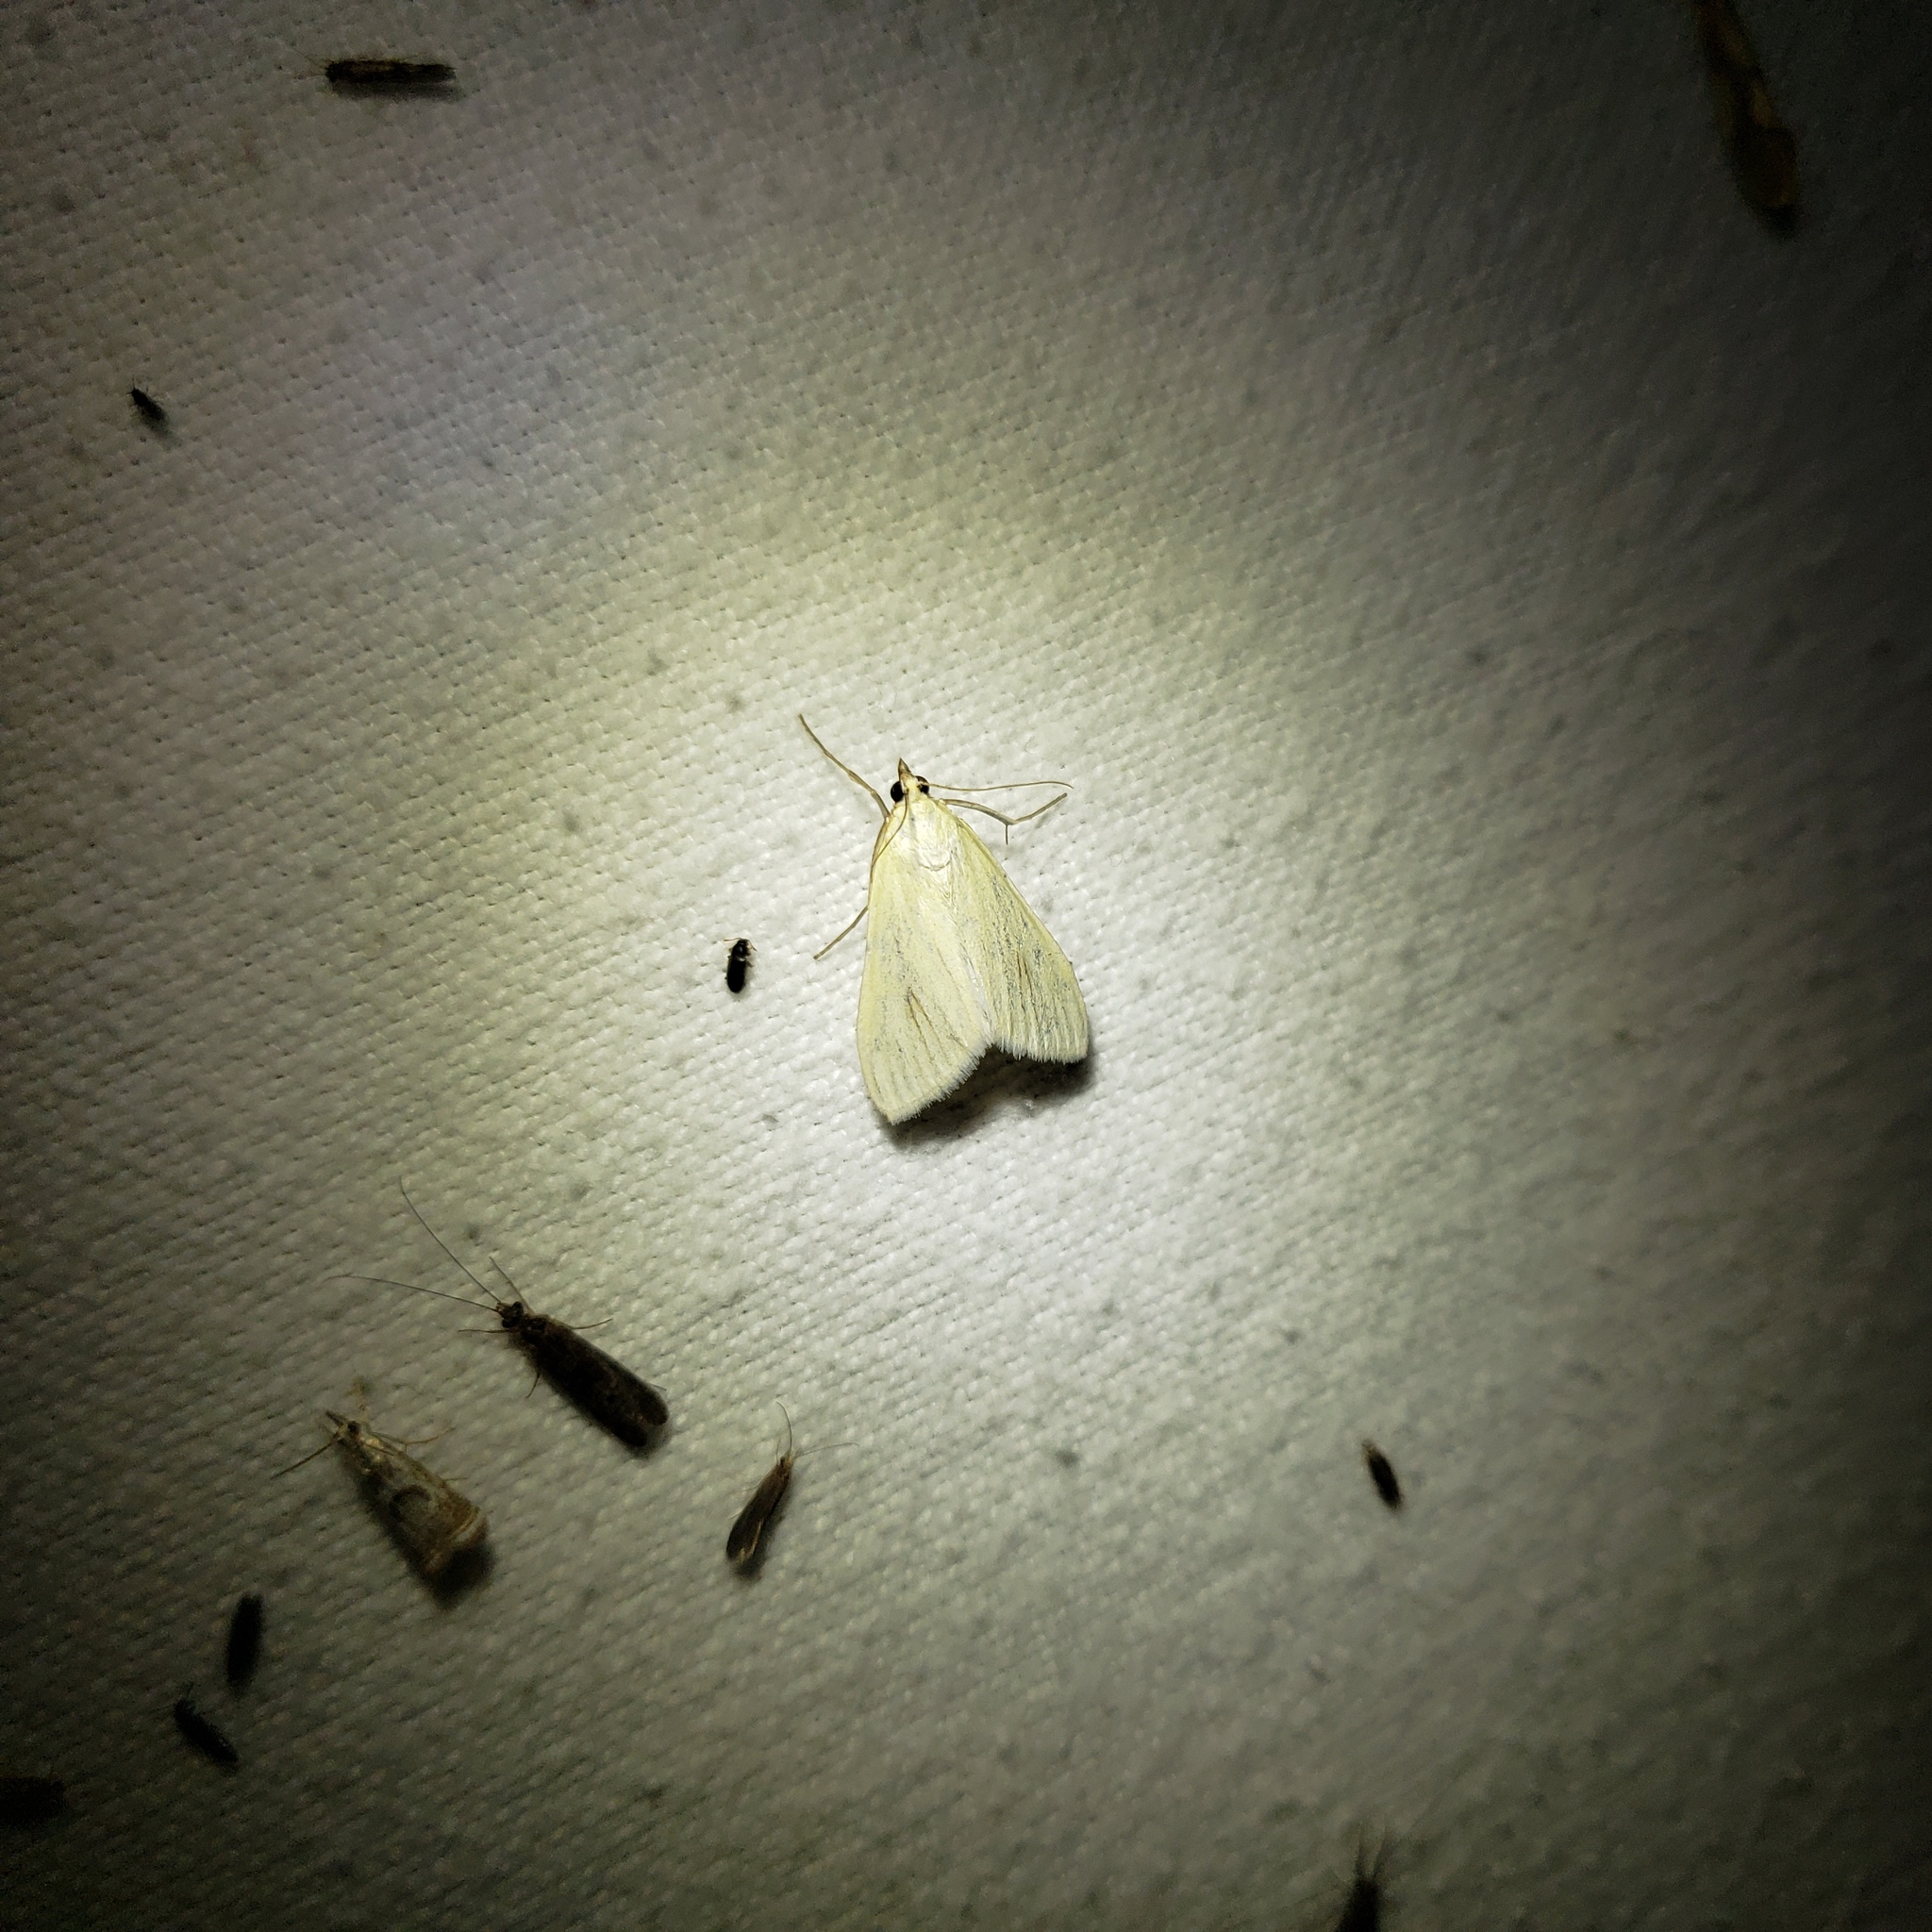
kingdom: Animalia
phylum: Arthropoda
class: Insecta
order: Lepidoptera
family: Crambidae
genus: Sitochroa
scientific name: Sitochroa palealis
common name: Greenish-yellow sitochroa moth
